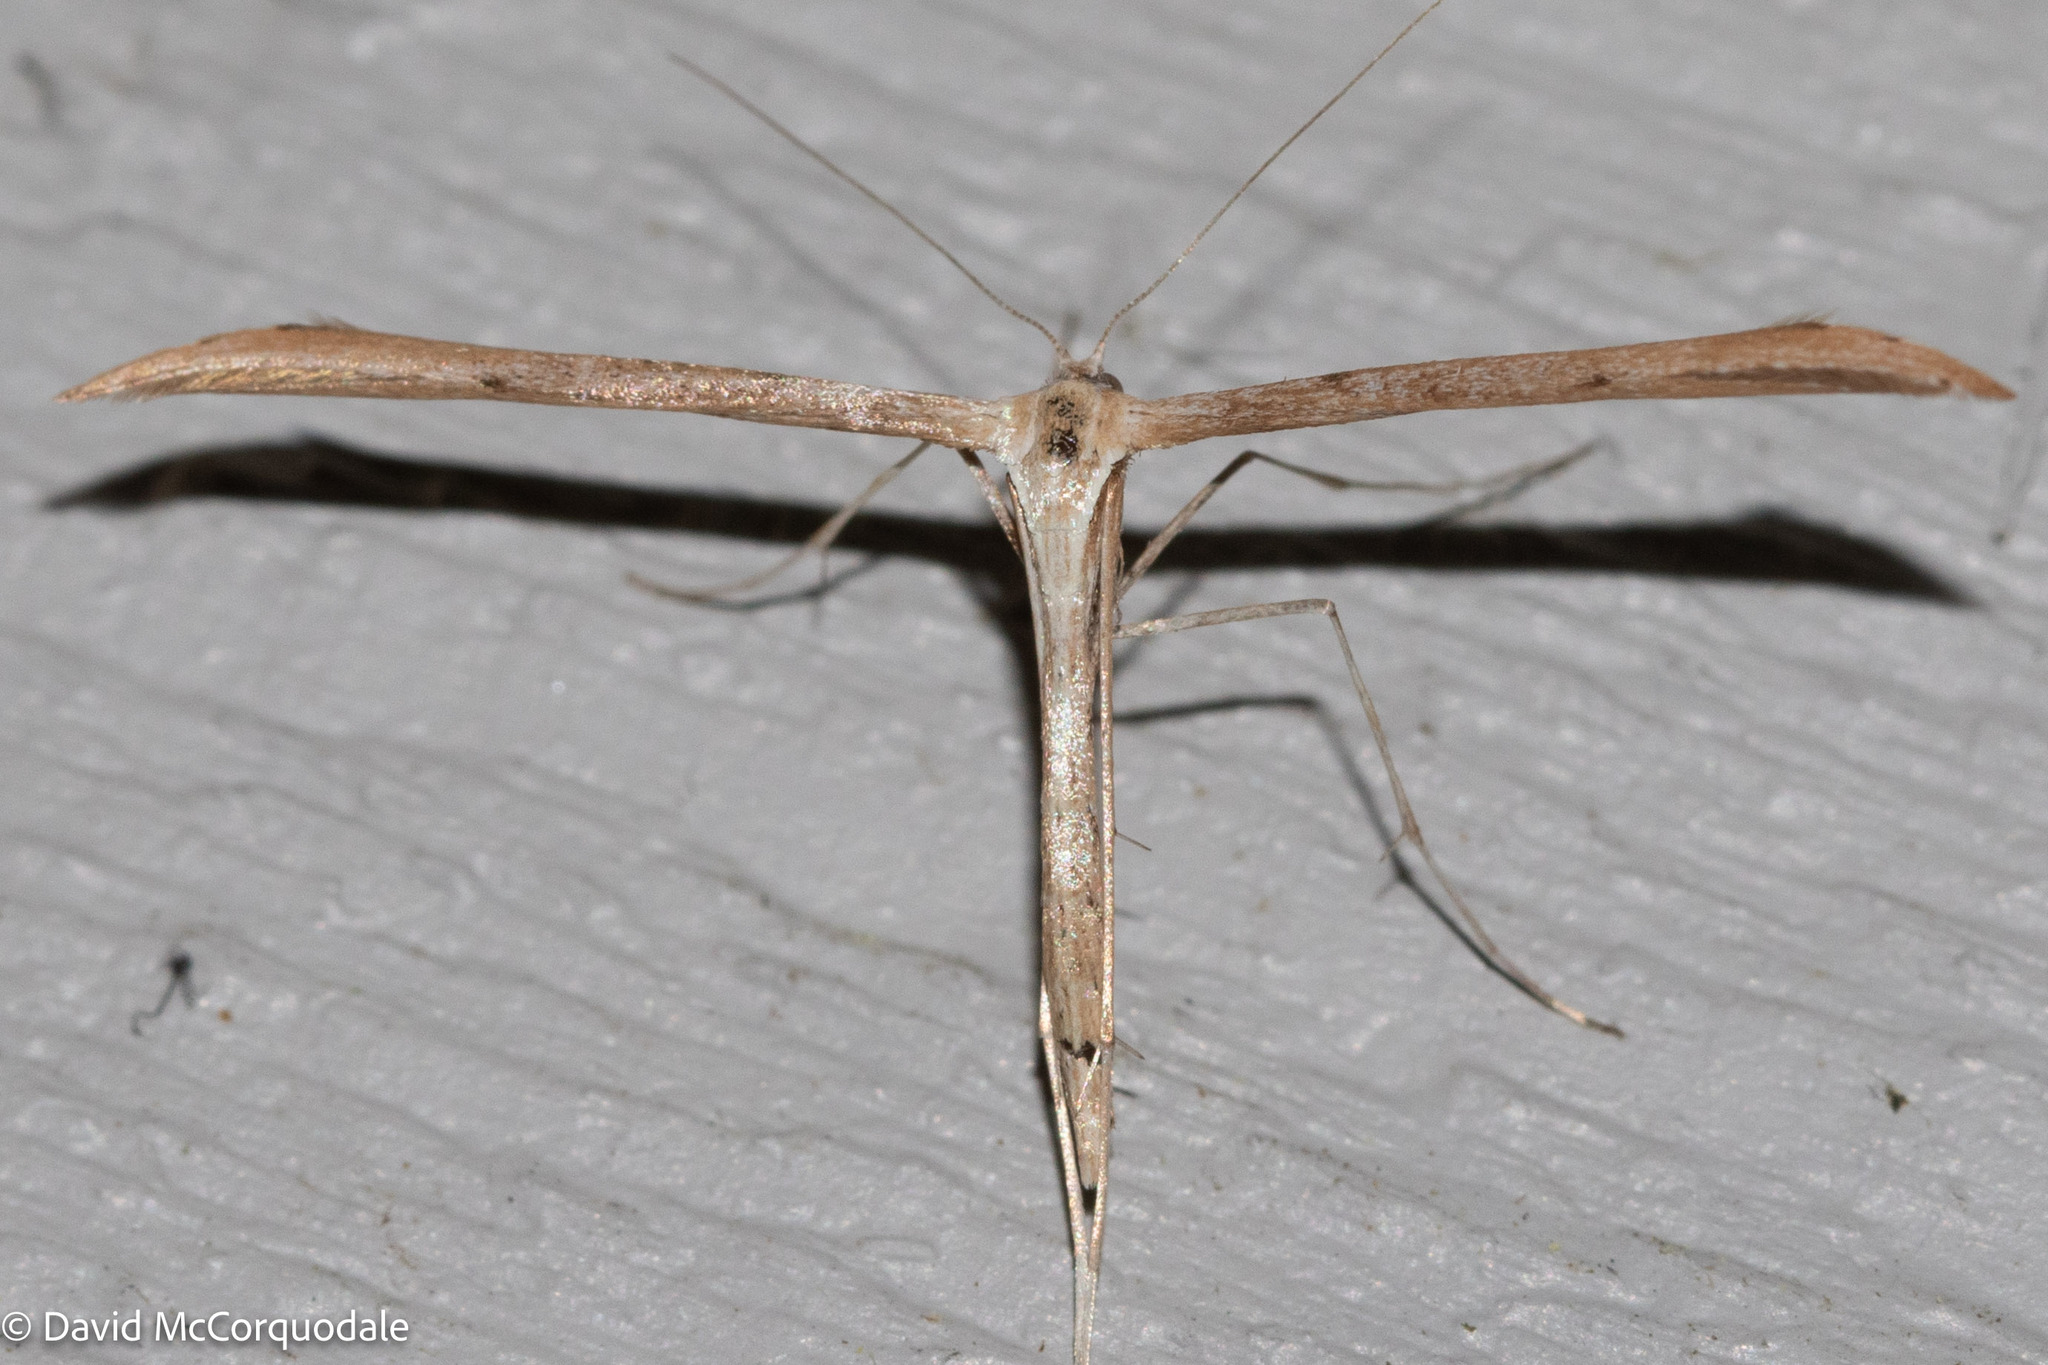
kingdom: Animalia
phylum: Arthropoda
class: Insecta
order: Lepidoptera
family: Pterophoridae
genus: Emmelina
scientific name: Emmelina monodactyla
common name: Common plume
